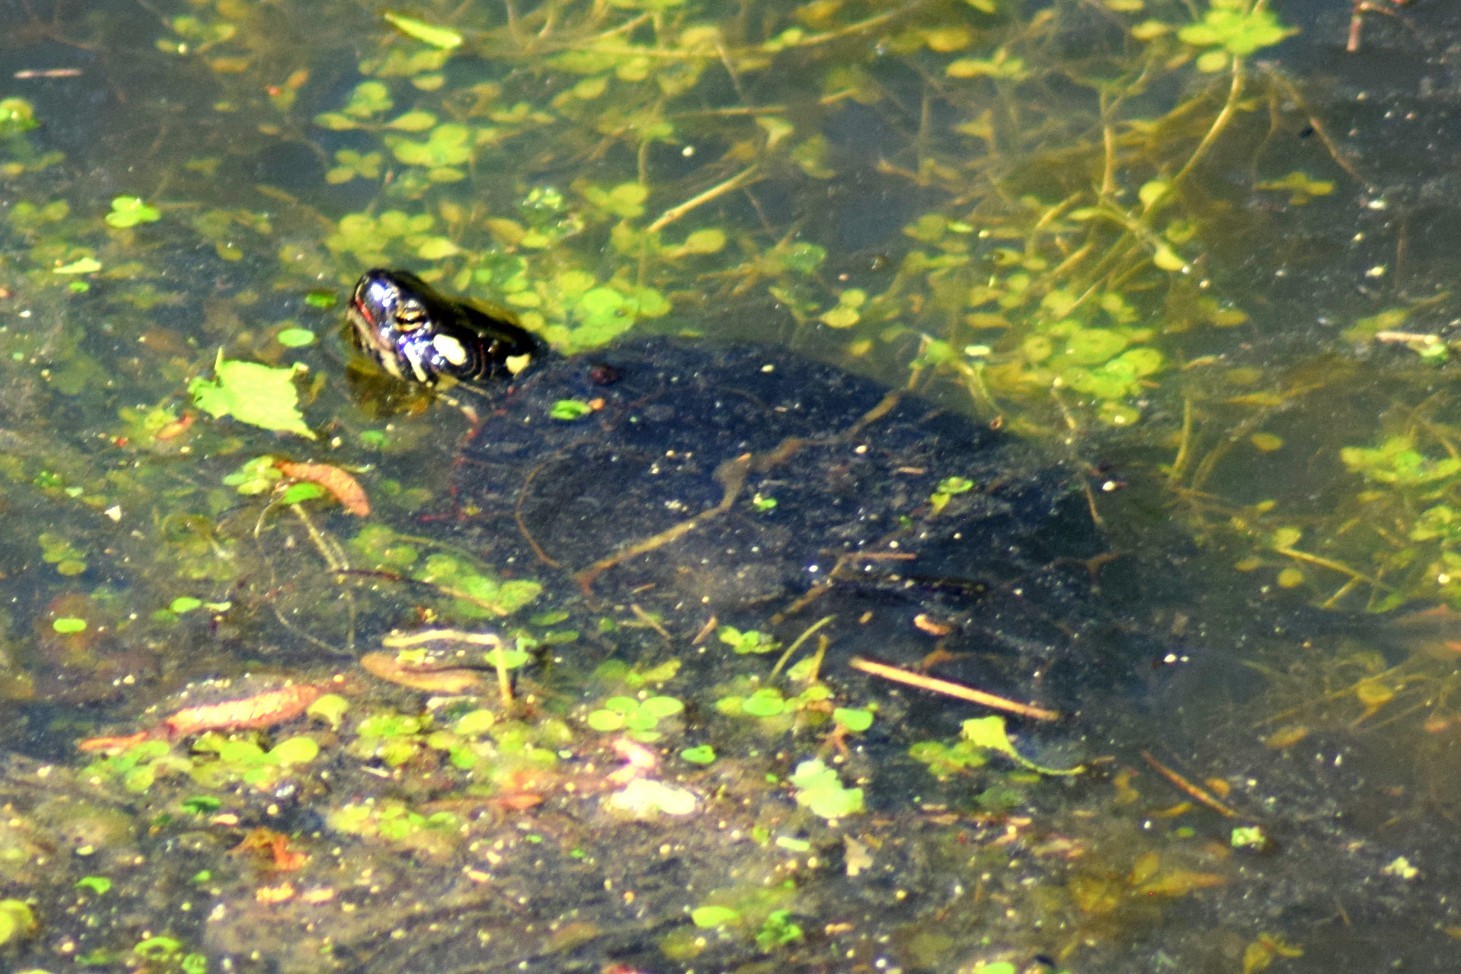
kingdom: Animalia
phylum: Chordata
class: Testudines
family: Emydidae
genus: Chrysemys
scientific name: Chrysemys picta
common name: Painted turtle
